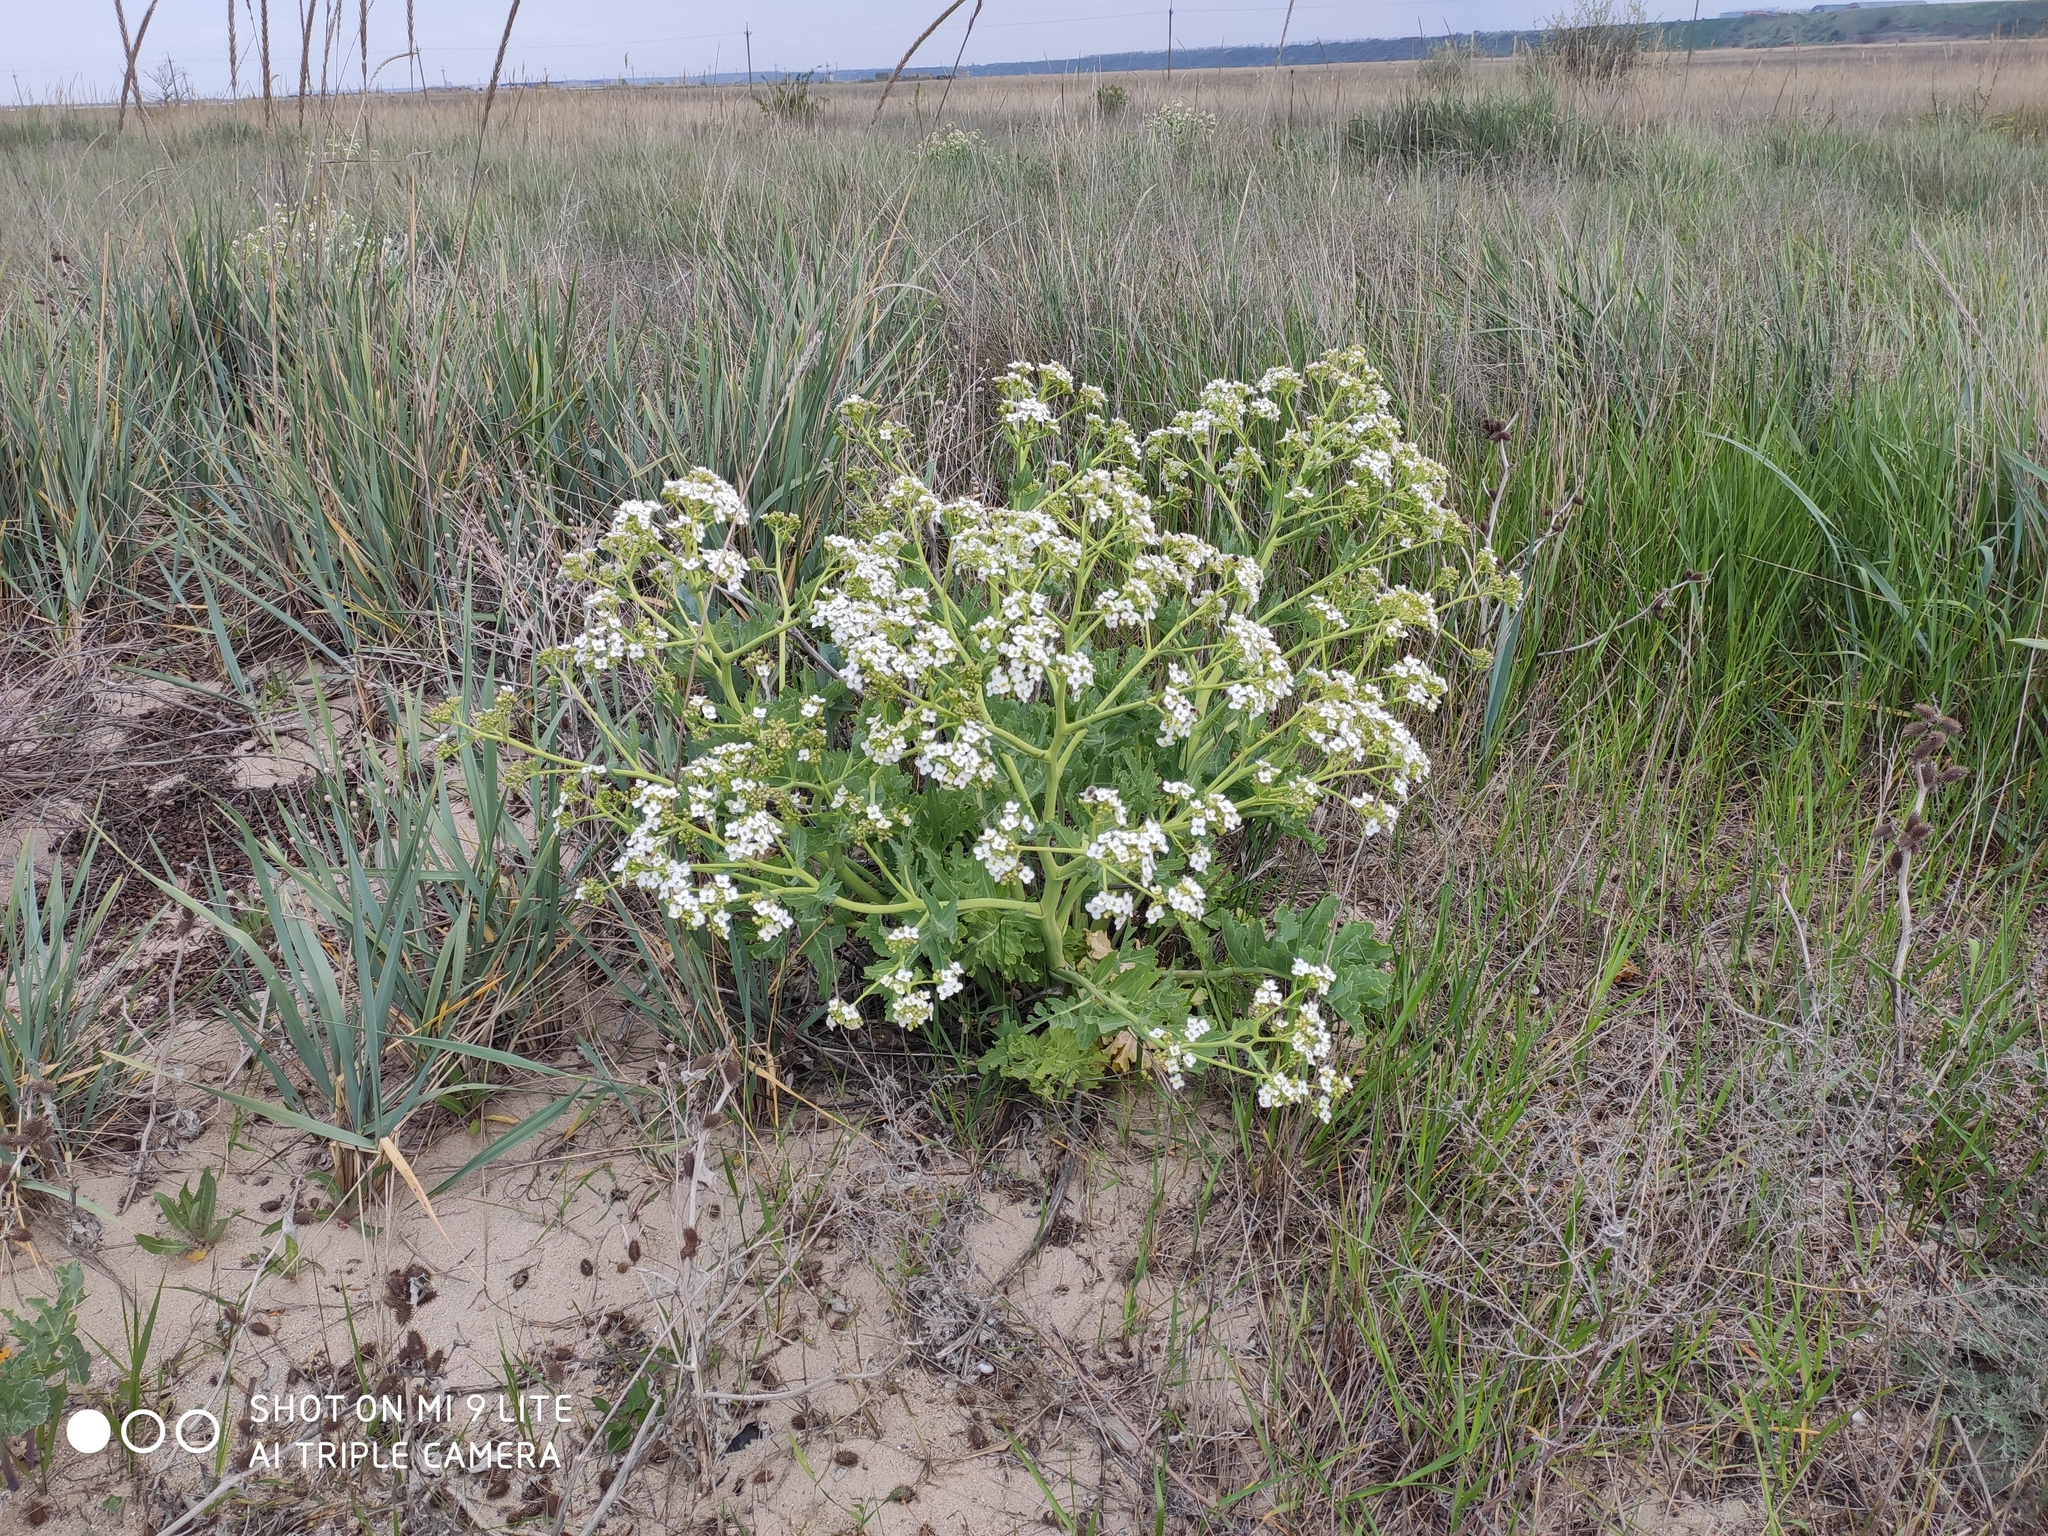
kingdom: Plantae
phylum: Tracheophyta
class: Magnoliopsida
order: Brassicales
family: Brassicaceae
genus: Crambe
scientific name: Crambe maritima
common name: Sea-kale
